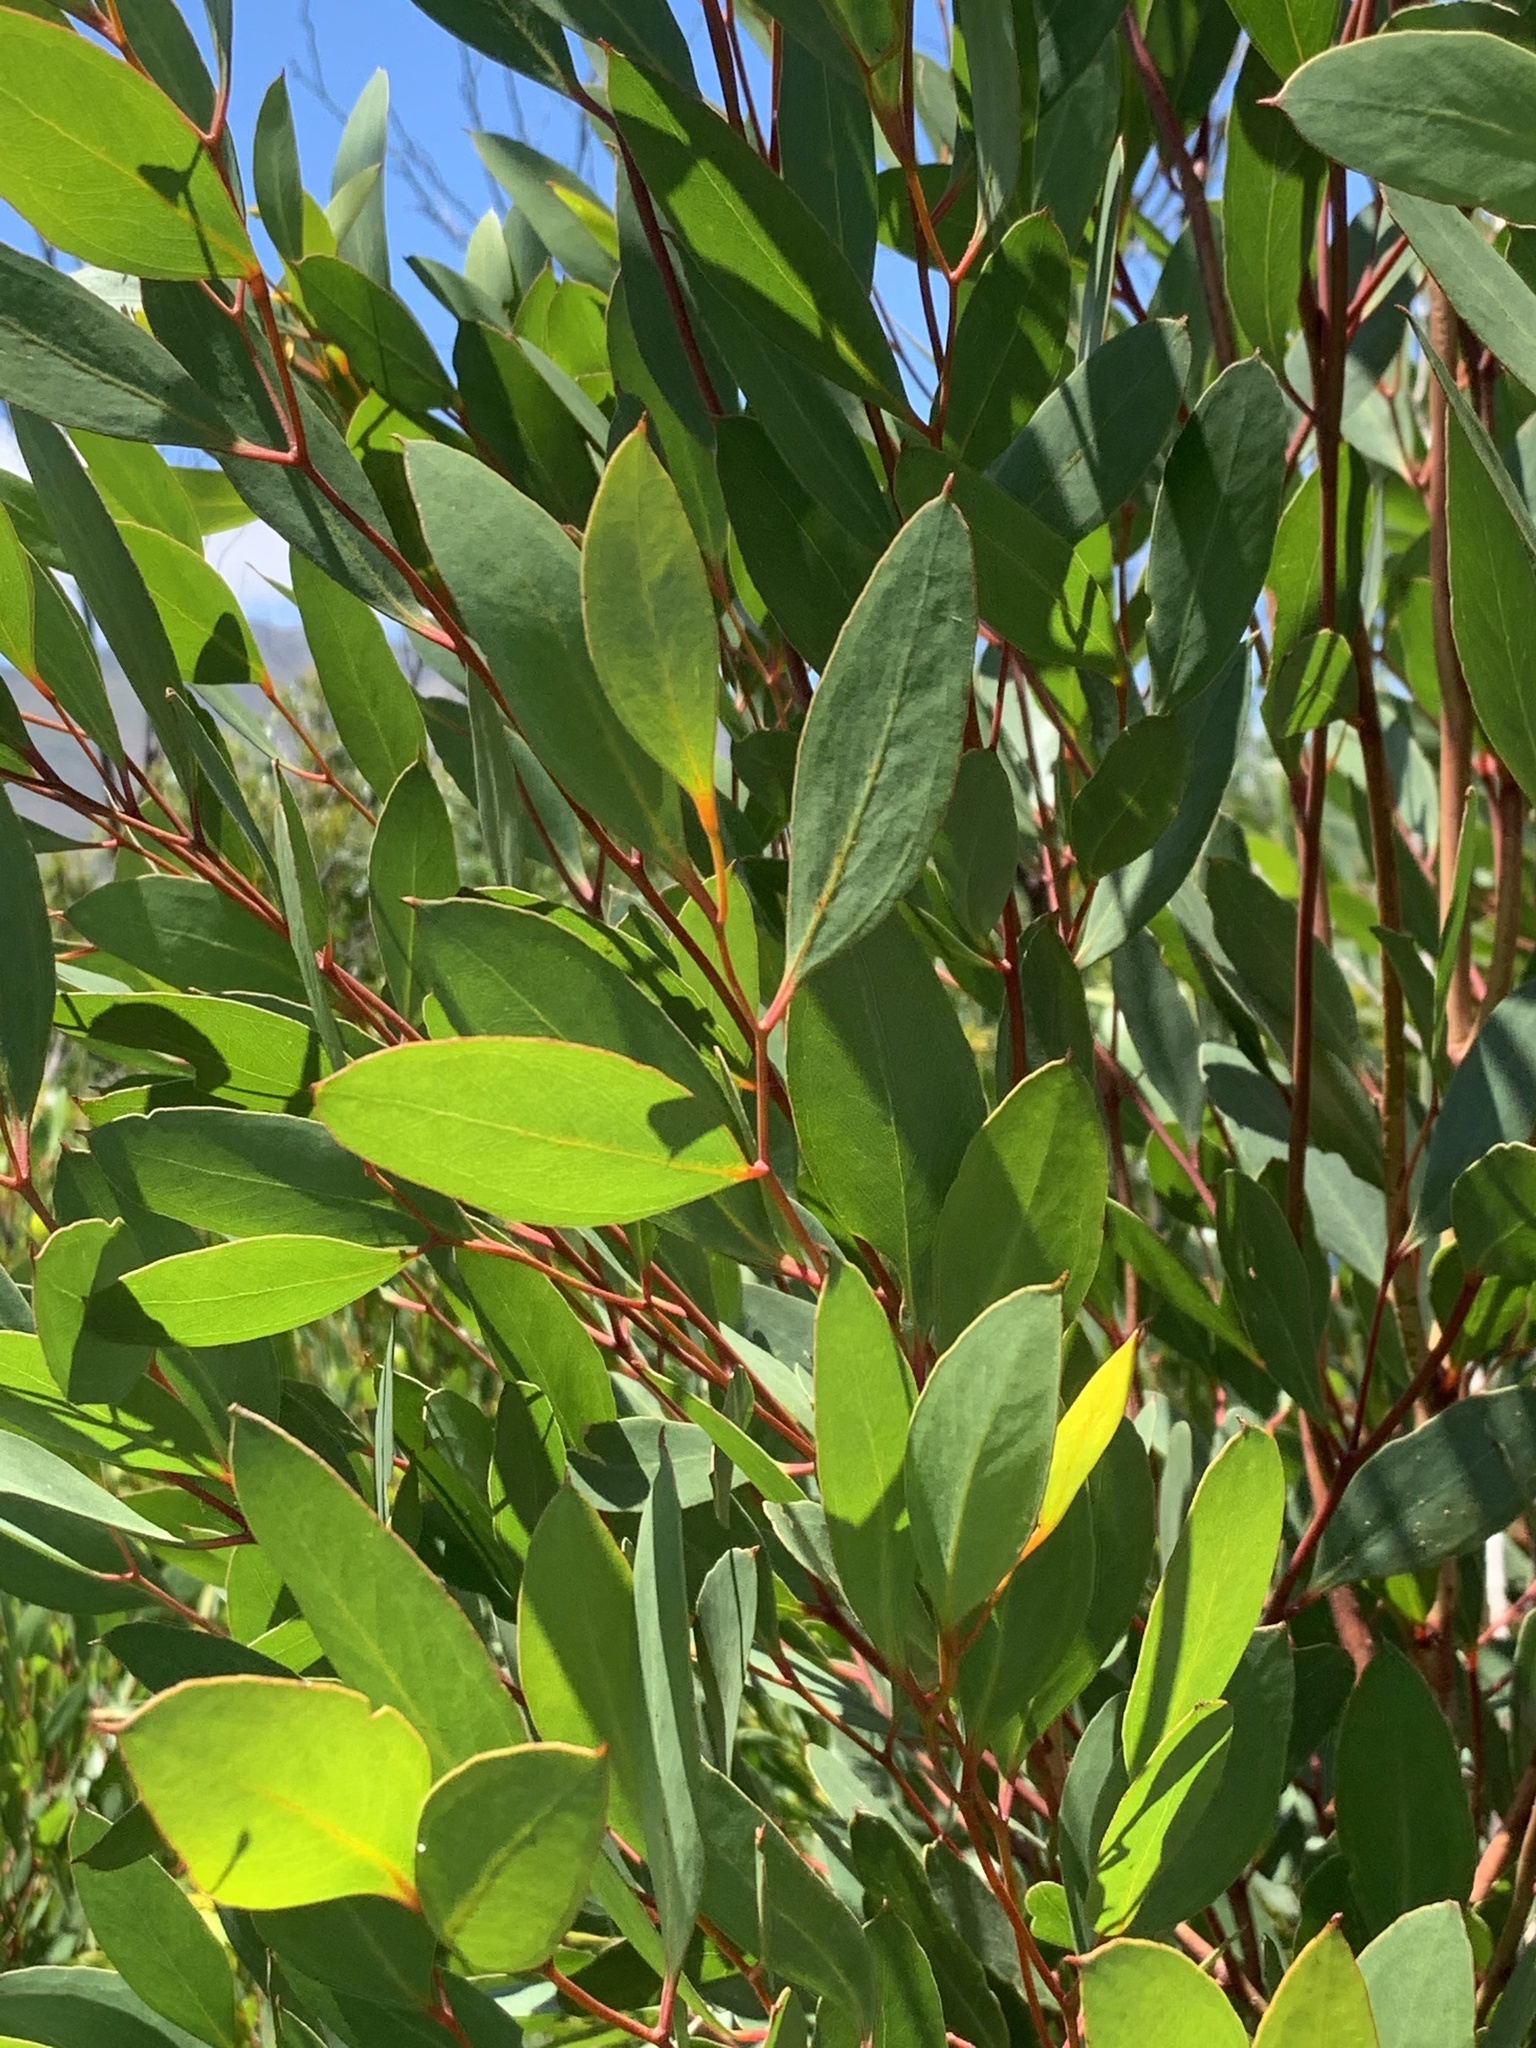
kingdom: Plantae
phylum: Tracheophyta
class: Magnoliopsida
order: Myrtales
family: Myrtaceae
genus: Eucalyptus
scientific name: Eucalyptus conferruminata
